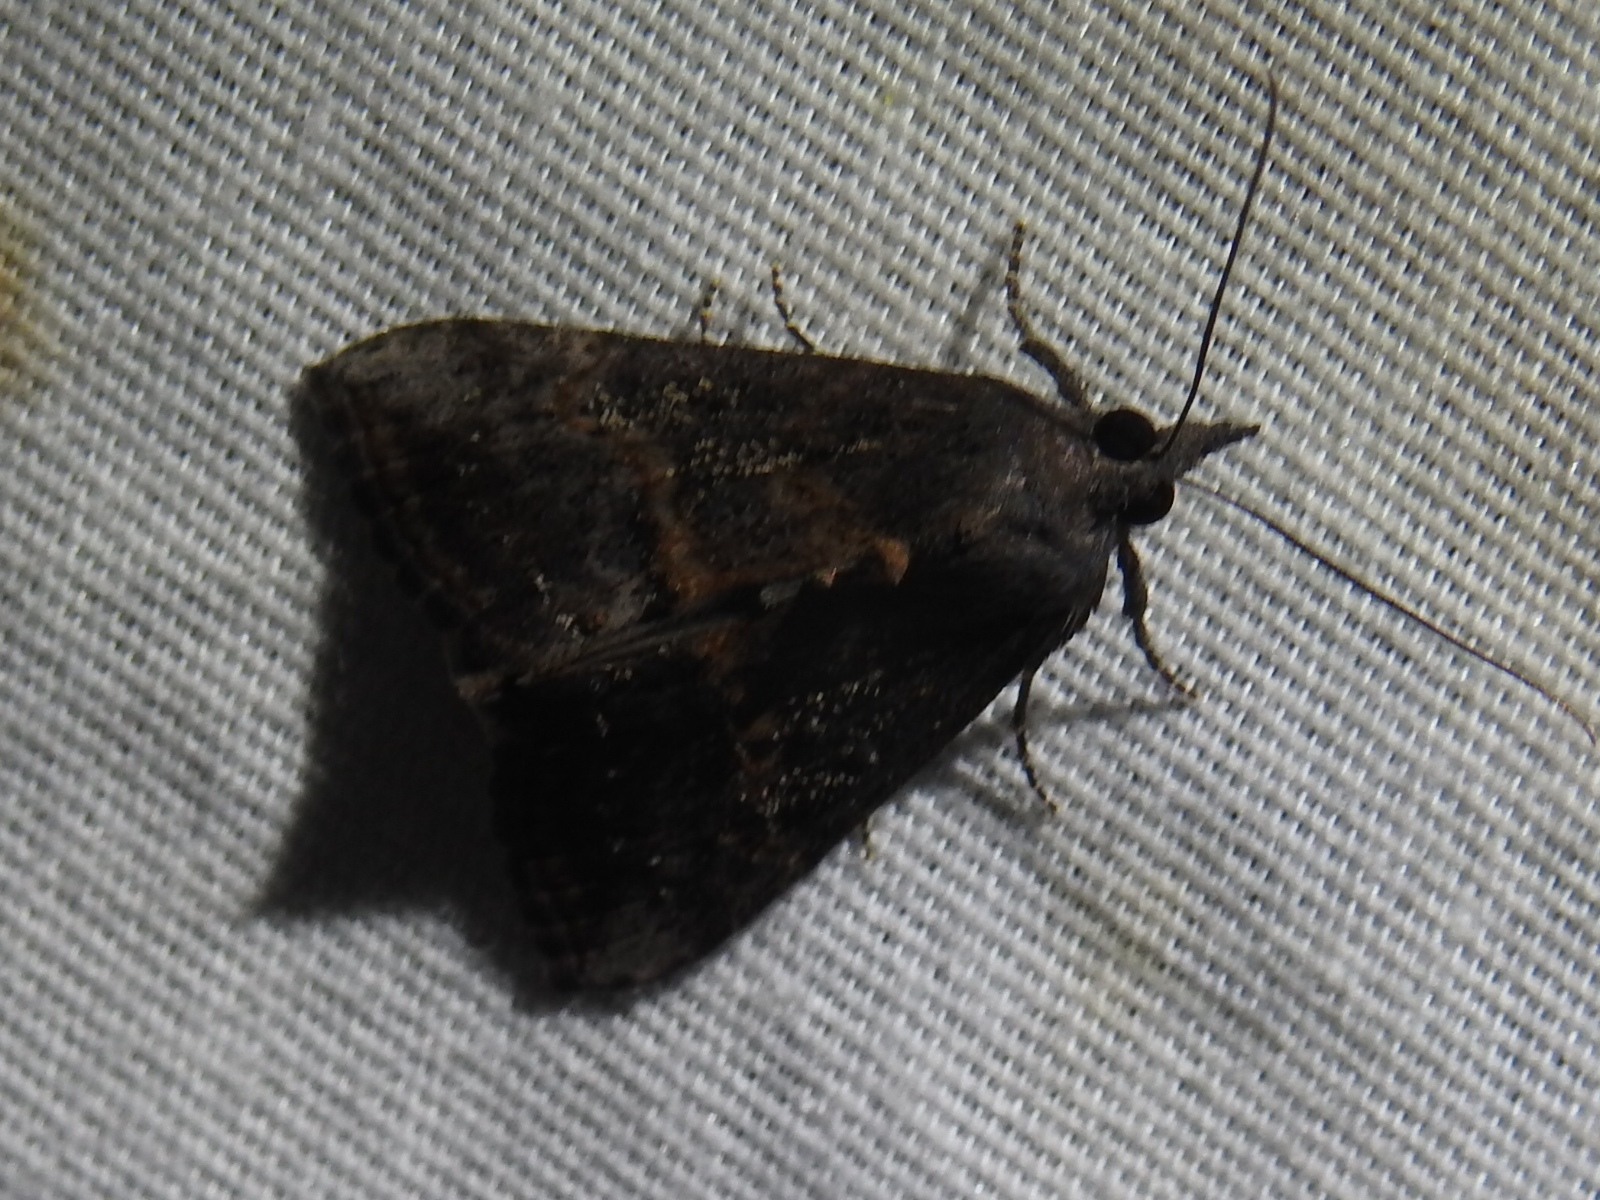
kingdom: Animalia
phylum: Arthropoda
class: Insecta
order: Lepidoptera
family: Erebidae
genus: Hypena
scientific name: Hypena scabra
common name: Green cloverworm
